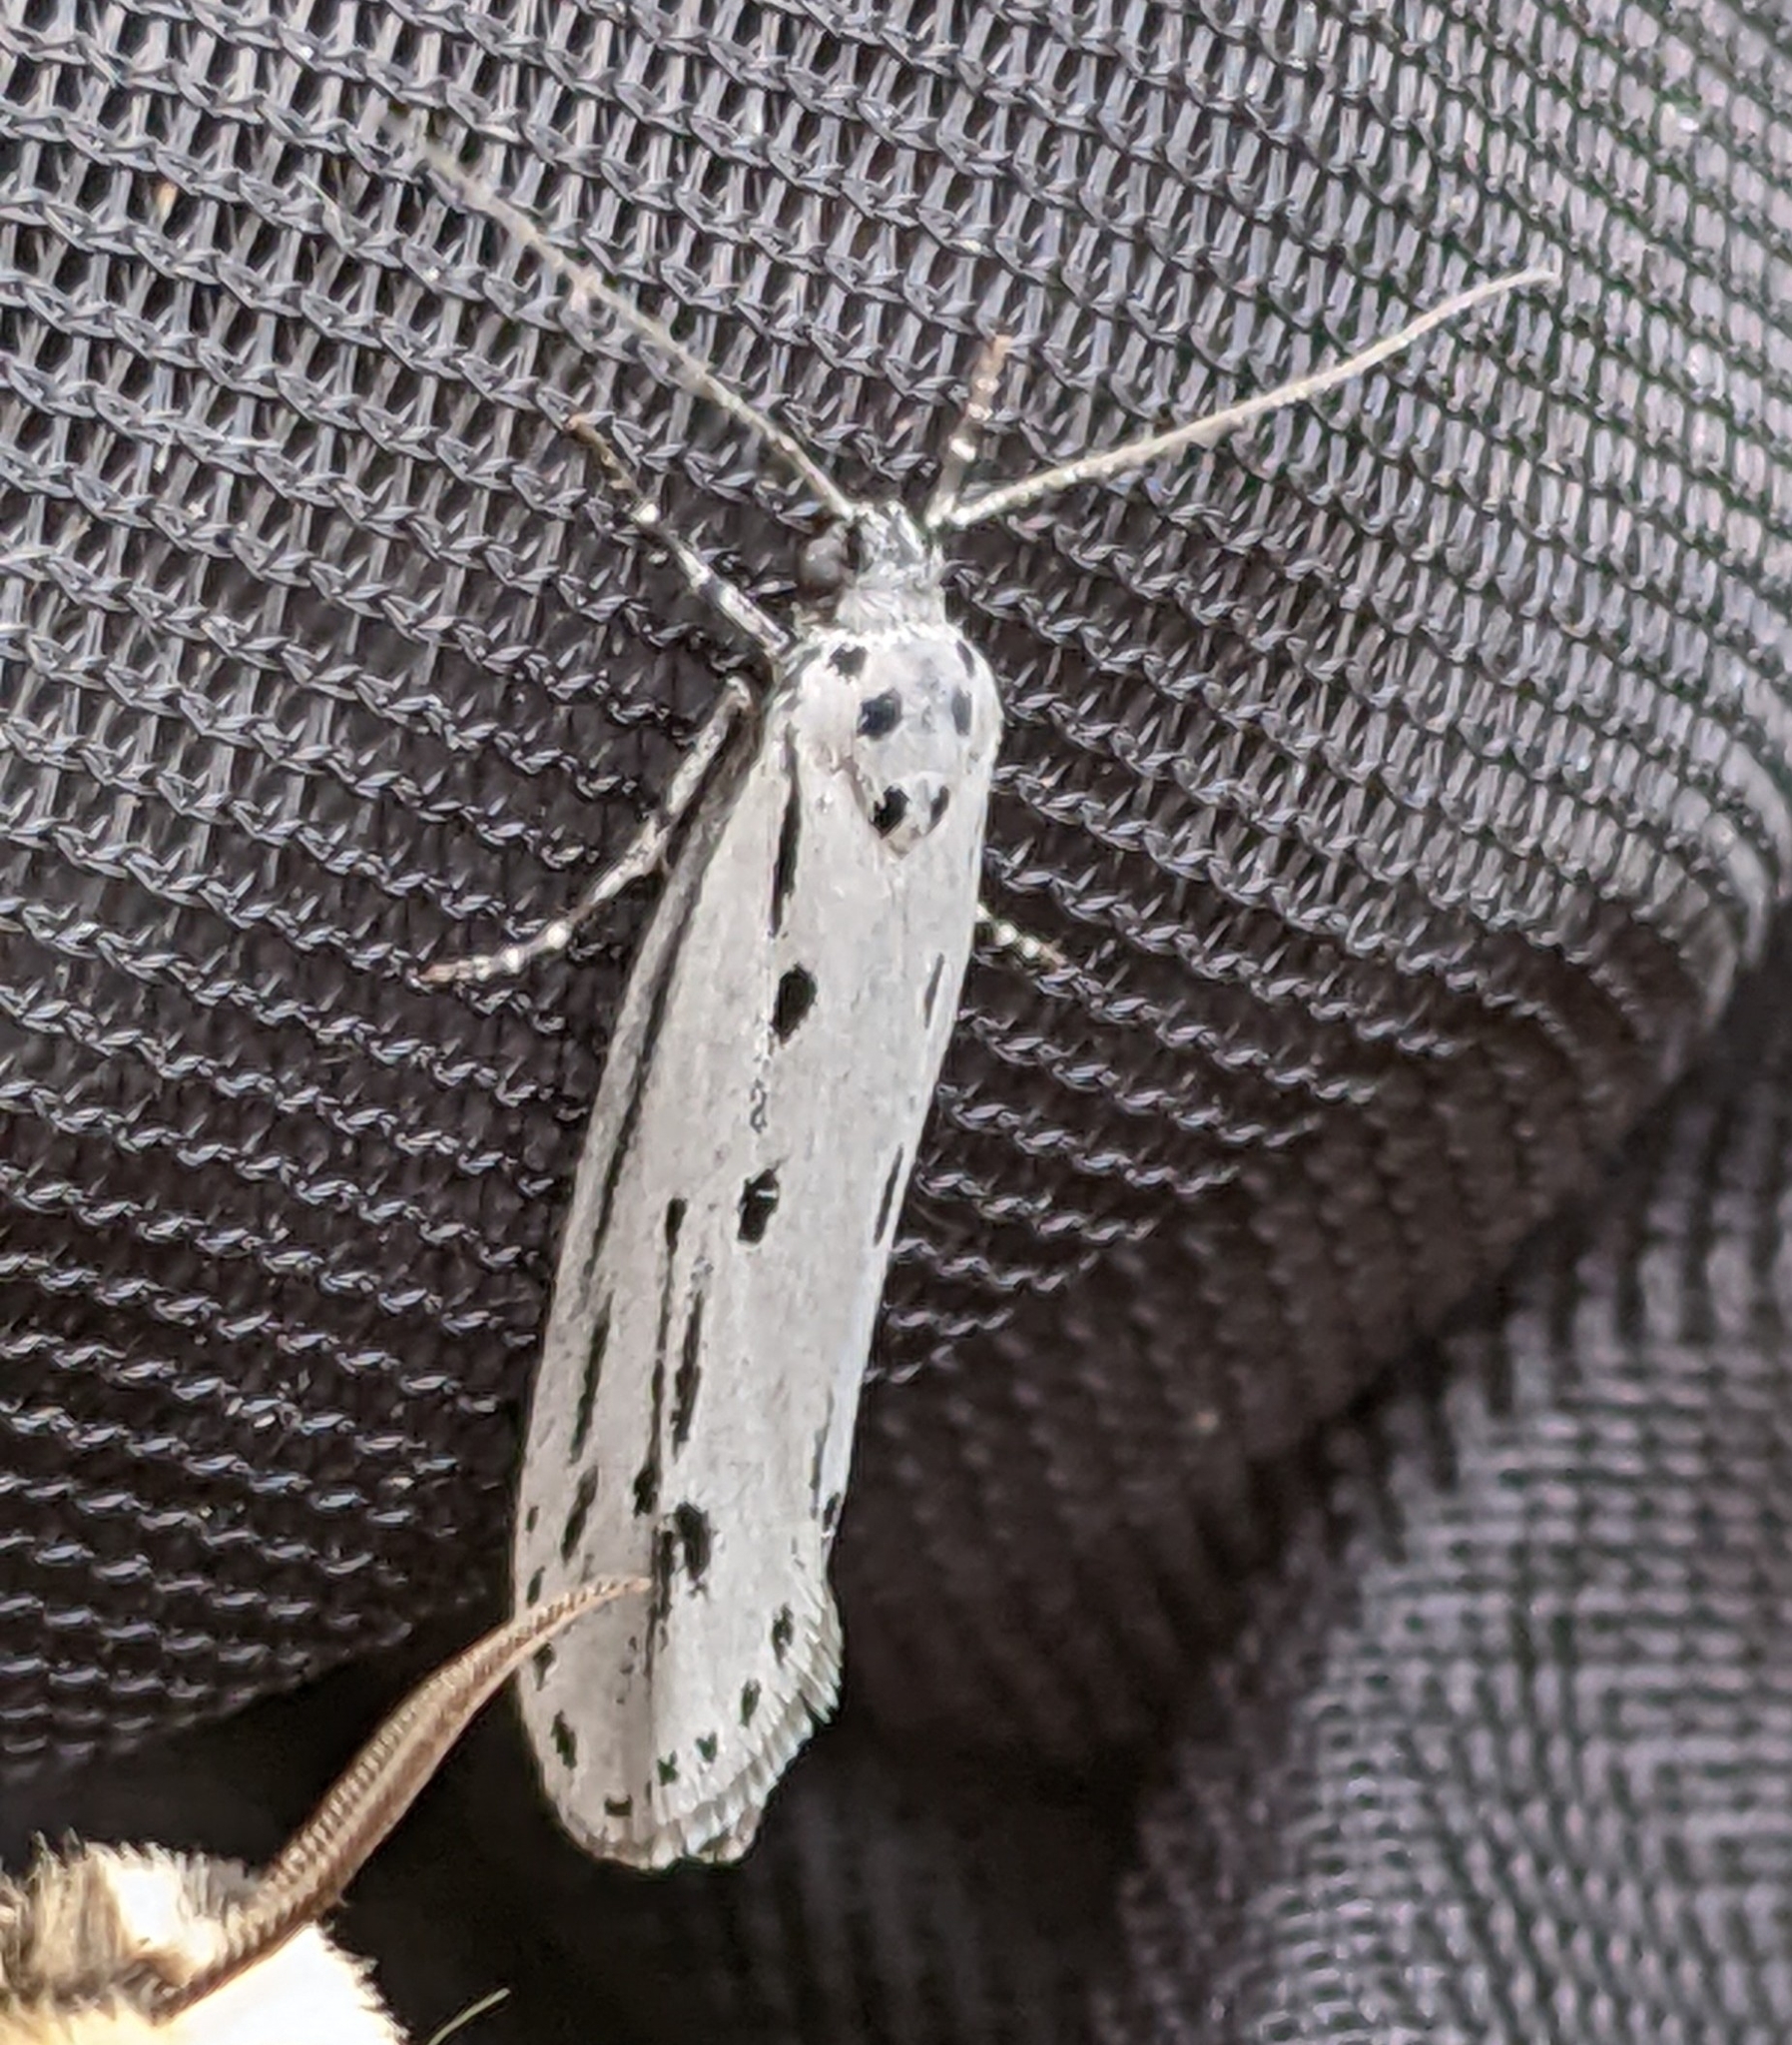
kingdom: Animalia
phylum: Arthropoda
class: Insecta
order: Lepidoptera
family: Ethmiidae
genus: Ethmia
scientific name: Ethmia monticola
